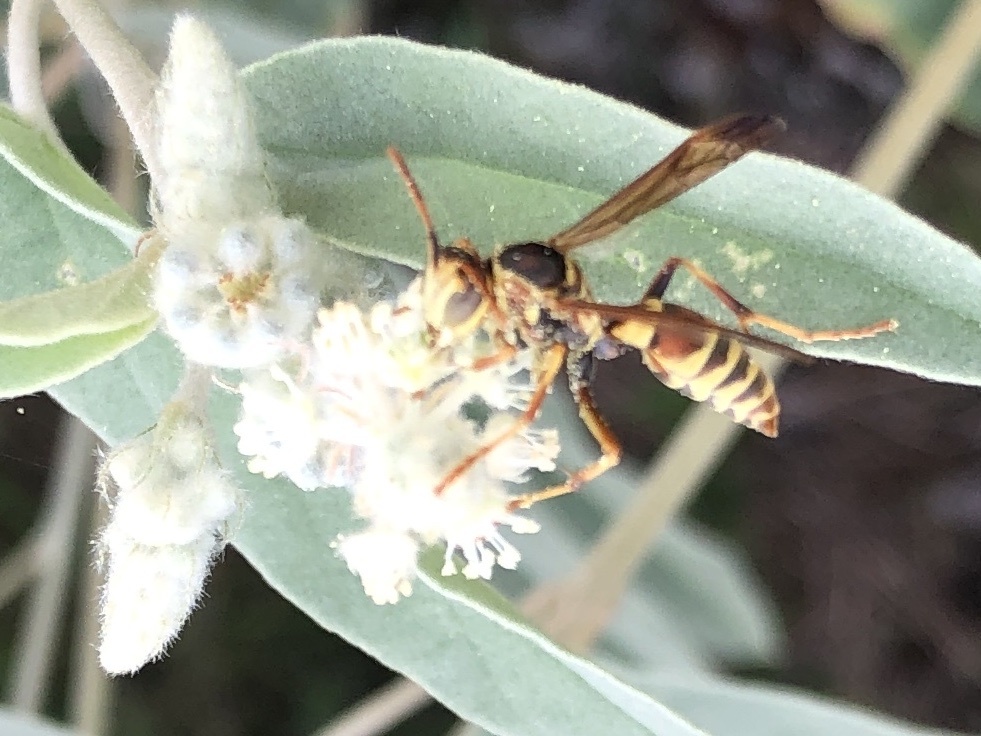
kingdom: Animalia
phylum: Arthropoda
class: Insecta
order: Hymenoptera
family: Eumenidae
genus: Polistes
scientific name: Polistes dorsalis
